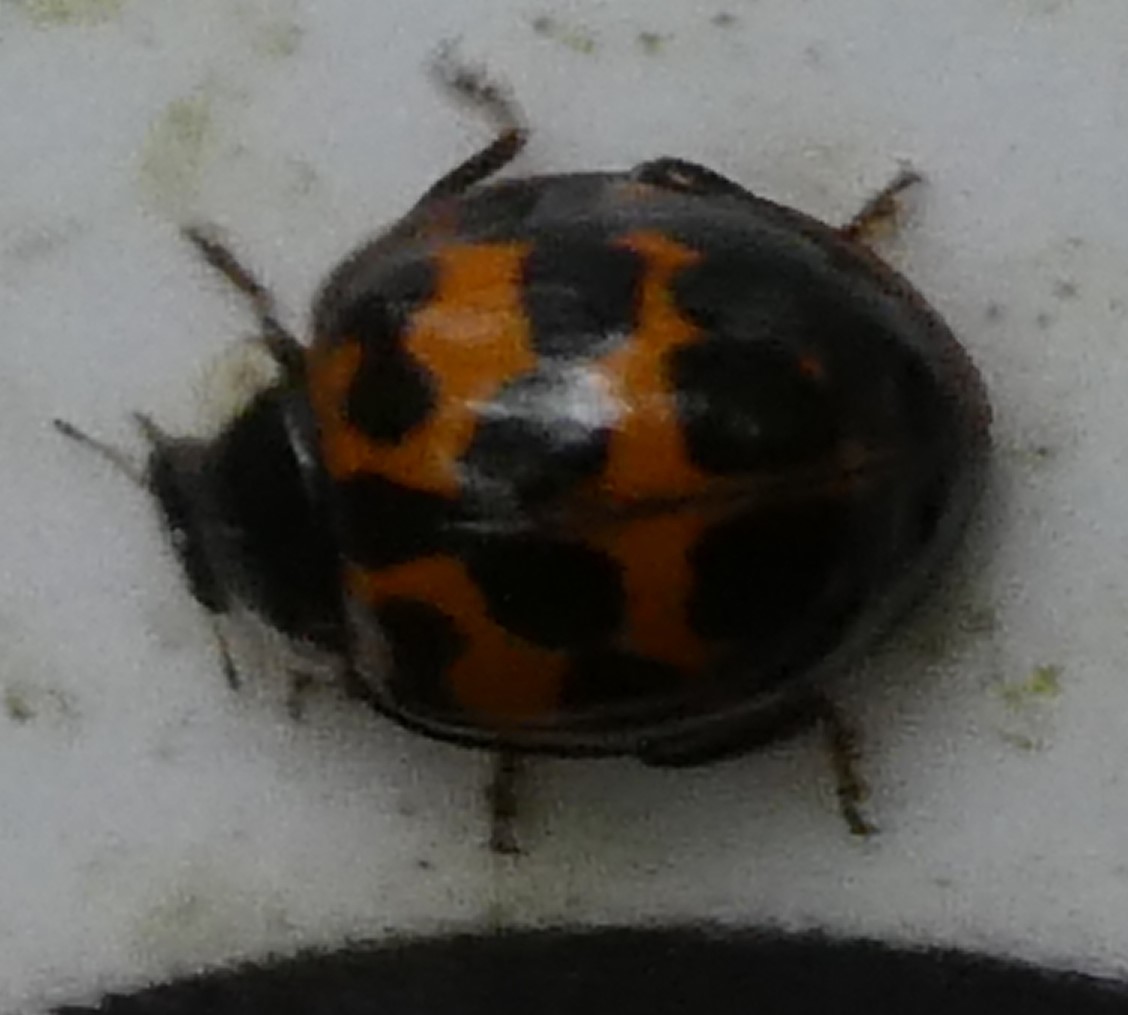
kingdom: Animalia
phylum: Arthropoda
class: Insecta
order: Coleoptera
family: Coccinellidae
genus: Harmonia
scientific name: Harmonia axyridis
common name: Harlequin ladybird
